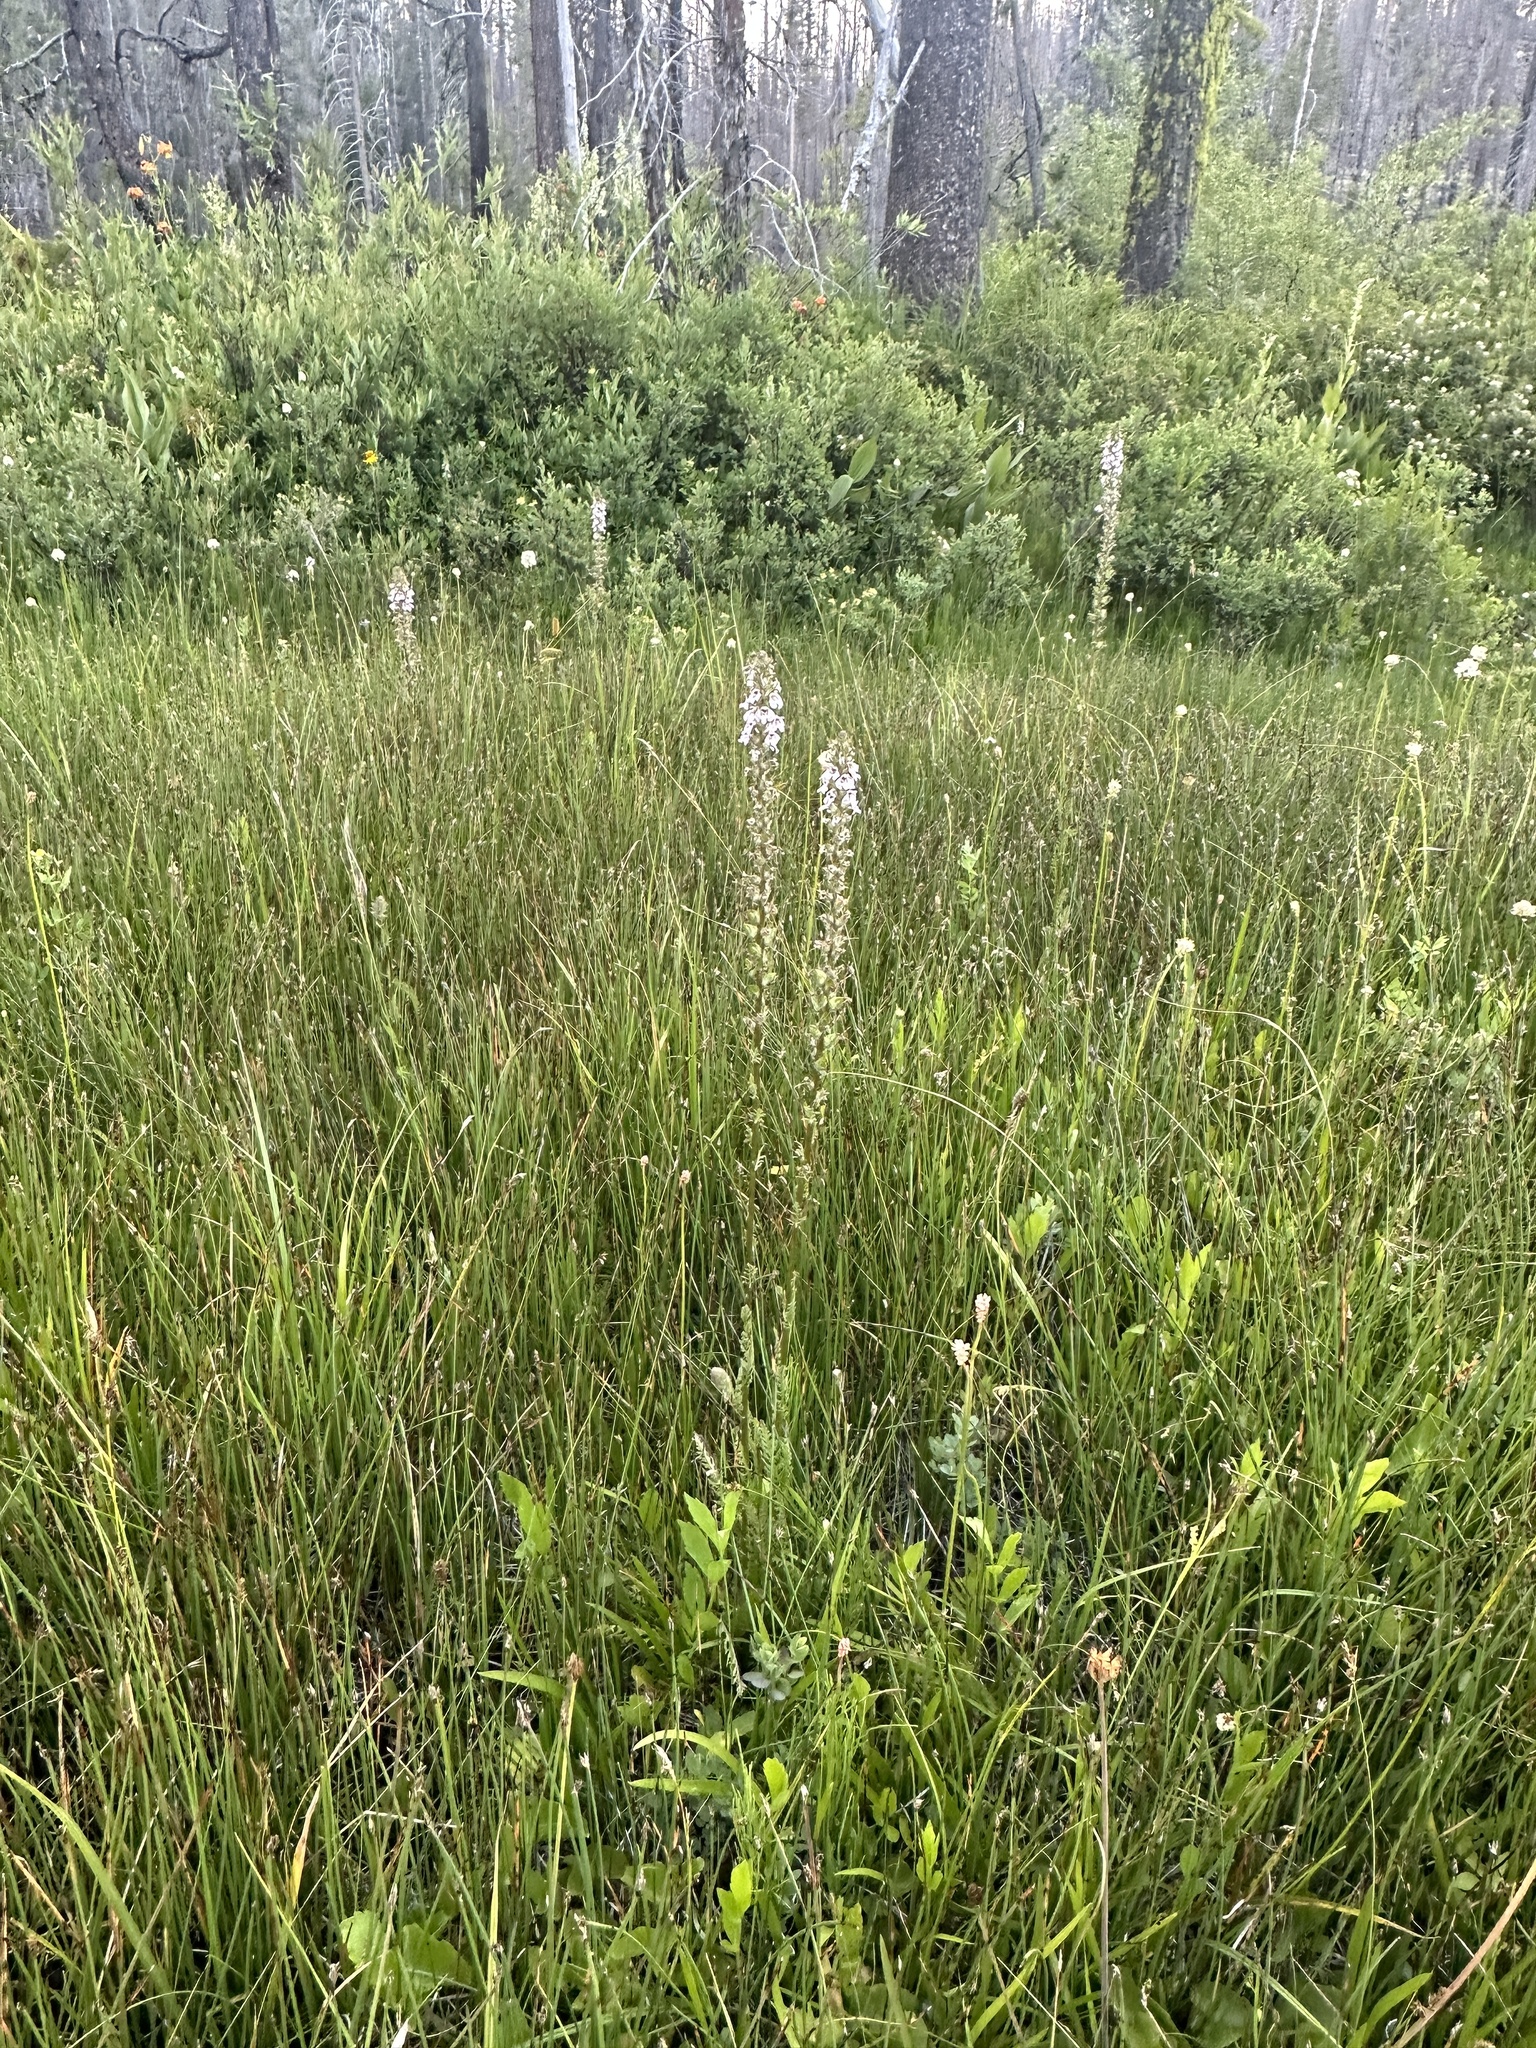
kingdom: Plantae
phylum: Tracheophyta
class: Magnoliopsida
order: Lamiales
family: Orobanchaceae
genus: Pedicularis
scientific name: Pedicularis attollens
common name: Slender pedicularis
